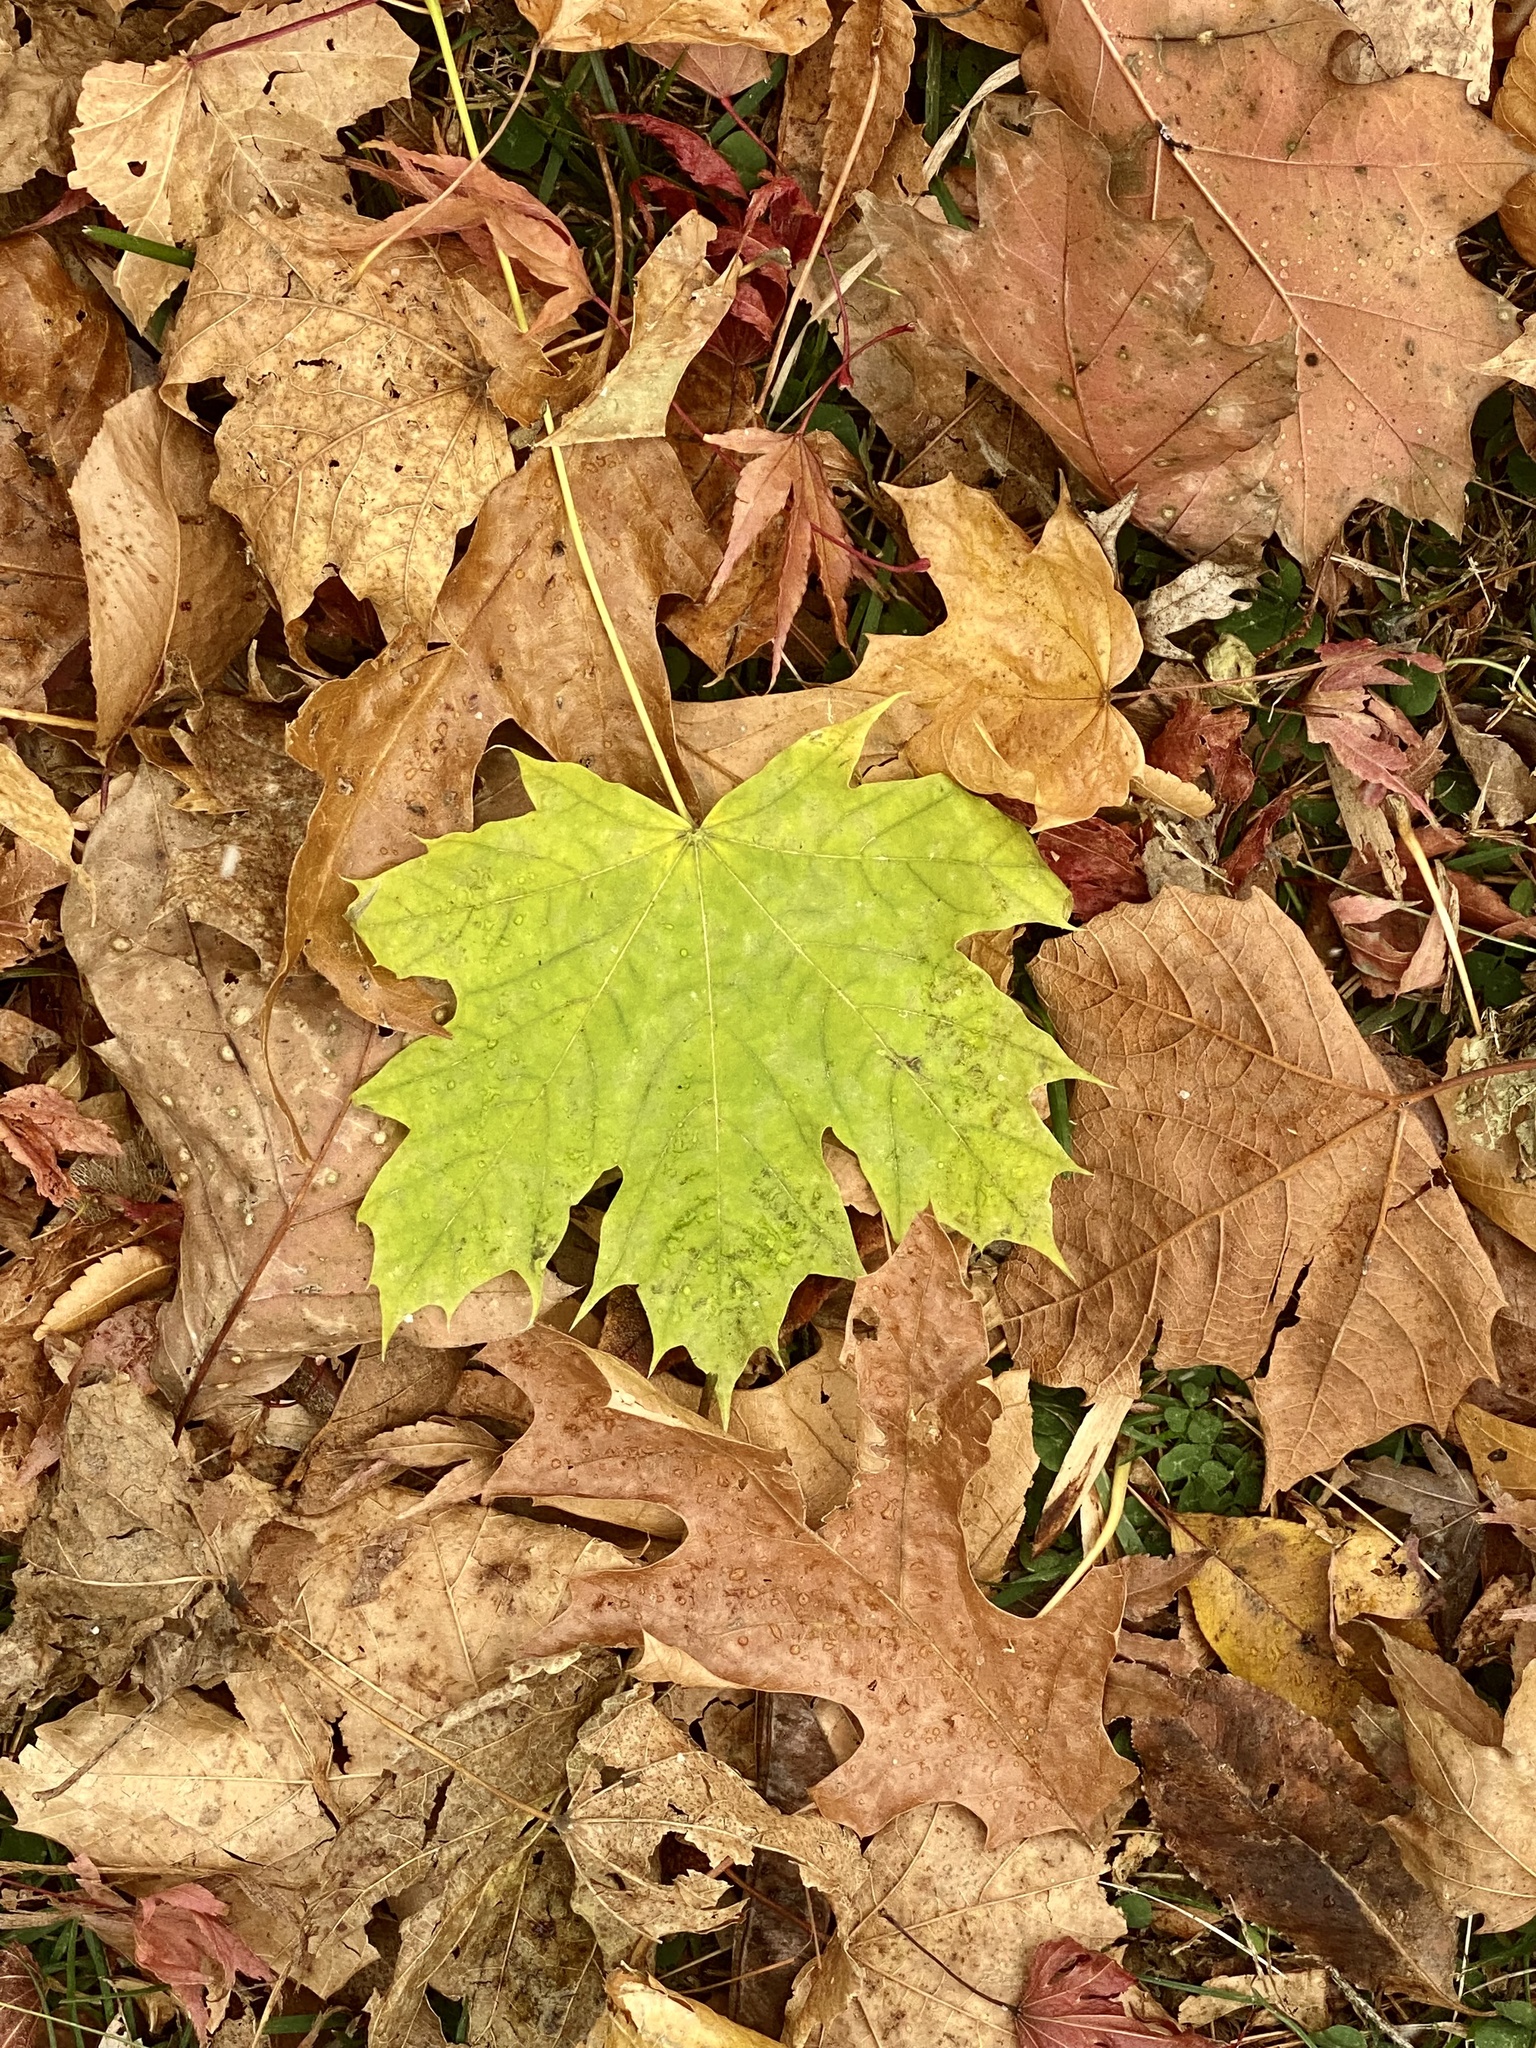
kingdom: Plantae
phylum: Tracheophyta
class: Magnoliopsida
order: Sapindales
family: Sapindaceae
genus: Acer
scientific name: Acer platanoides
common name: Norway maple
